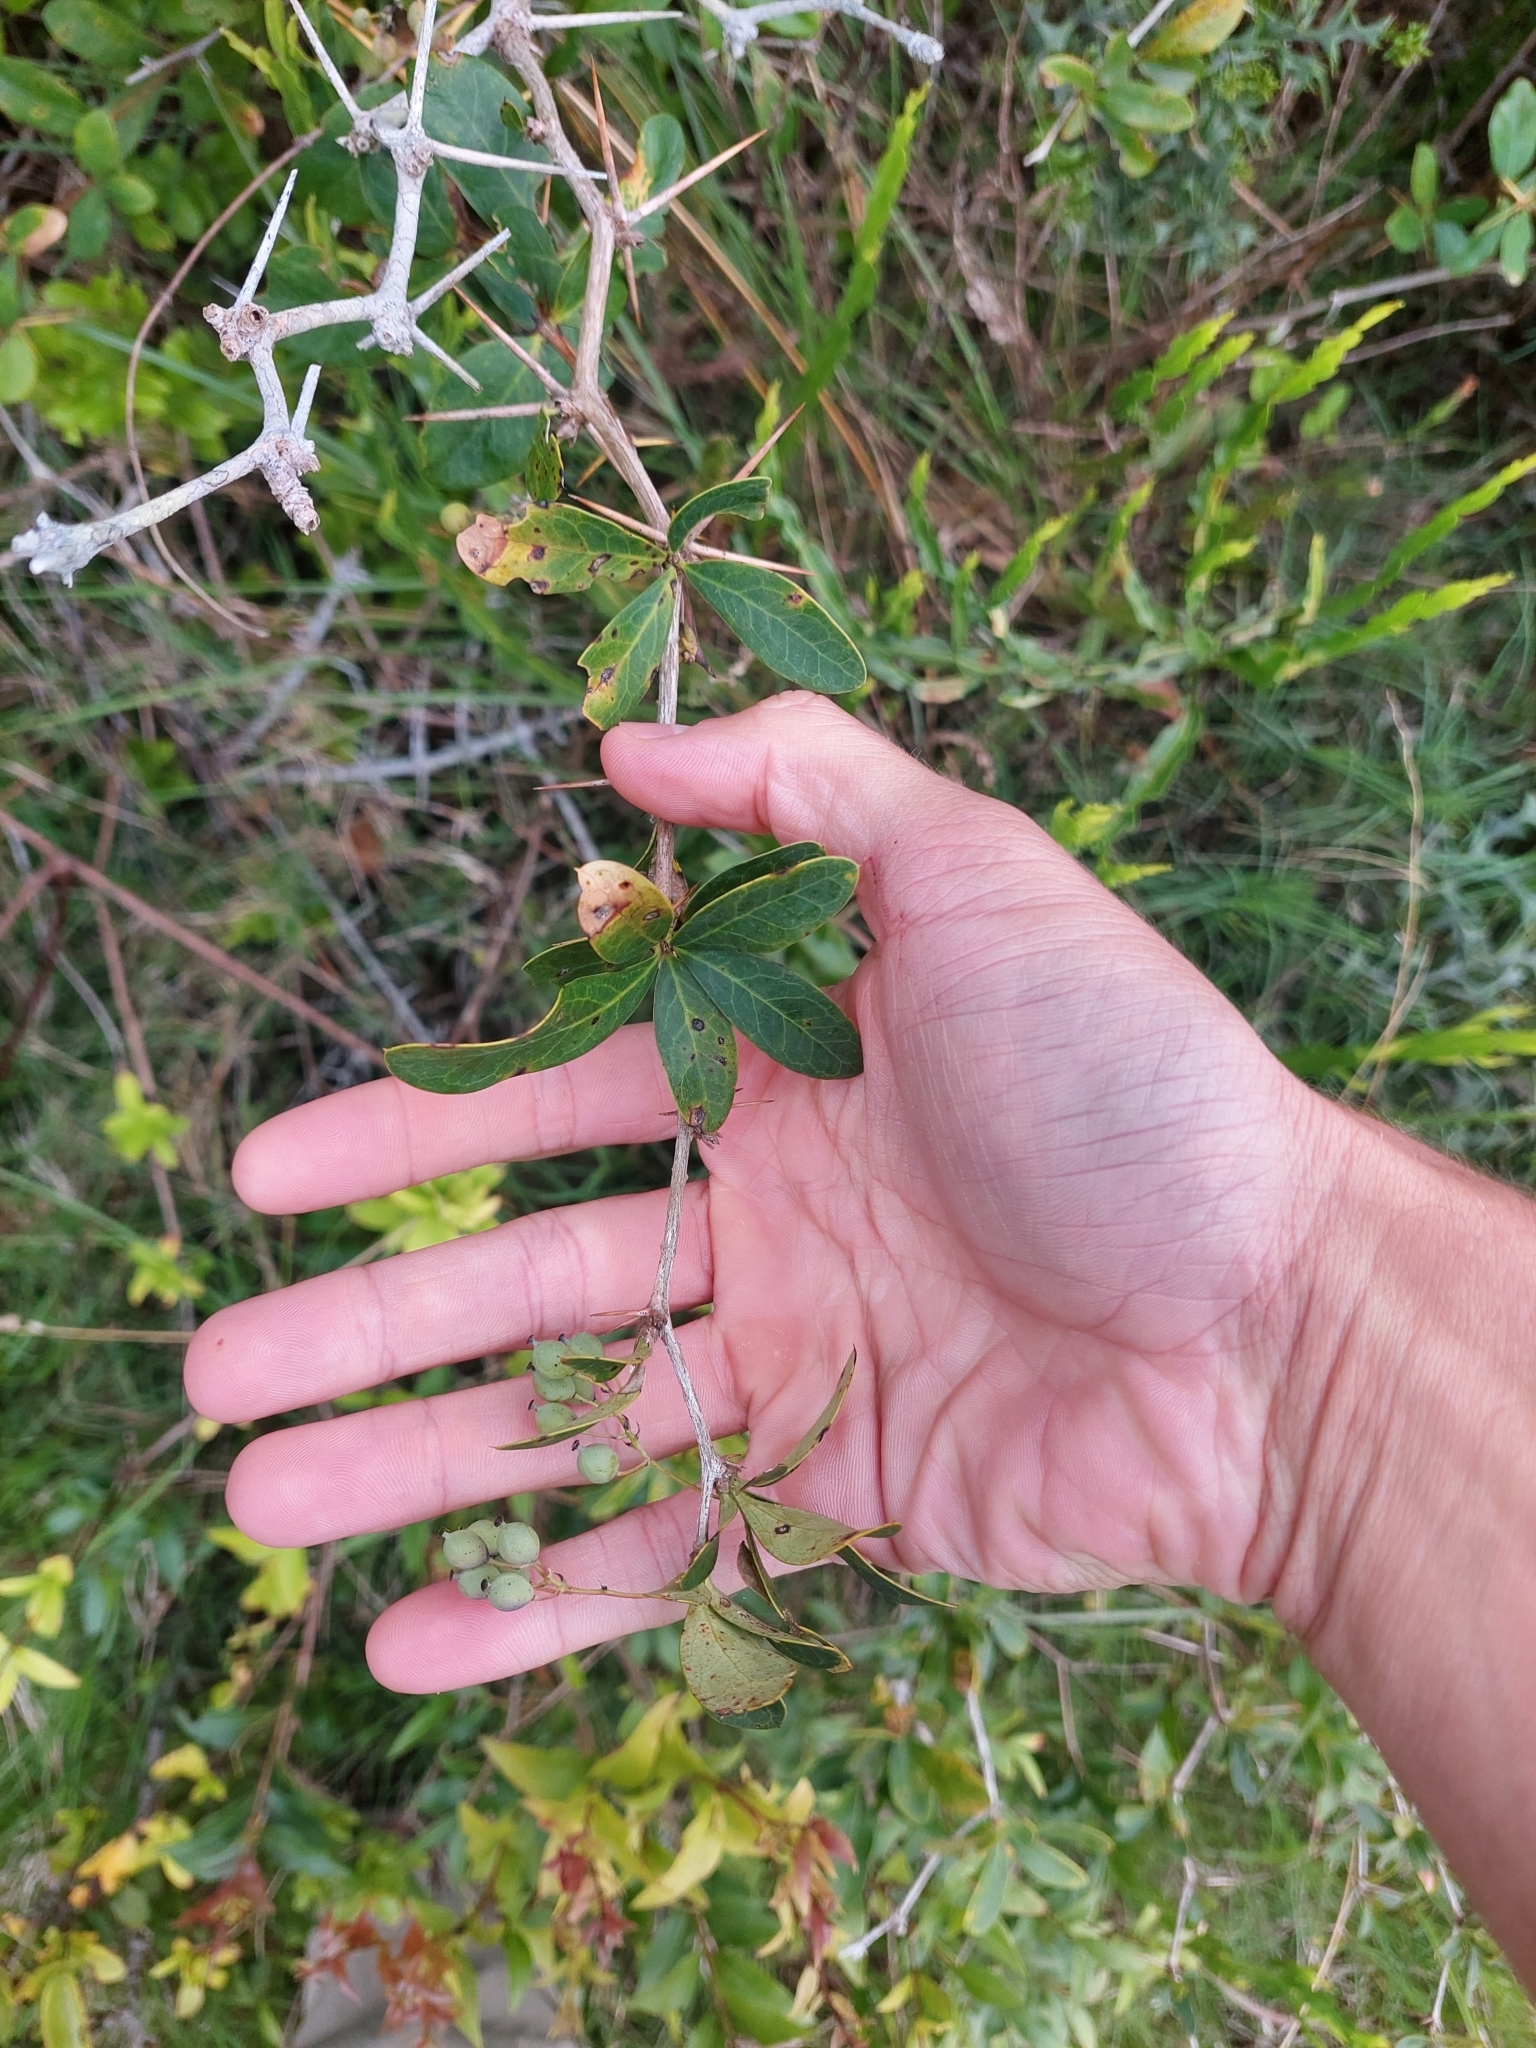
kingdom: Plantae
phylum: Tracheophyta
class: Magnoliopsida
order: Ranunculales
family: Berberidaceae
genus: Berberis
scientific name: Berberis laurina
